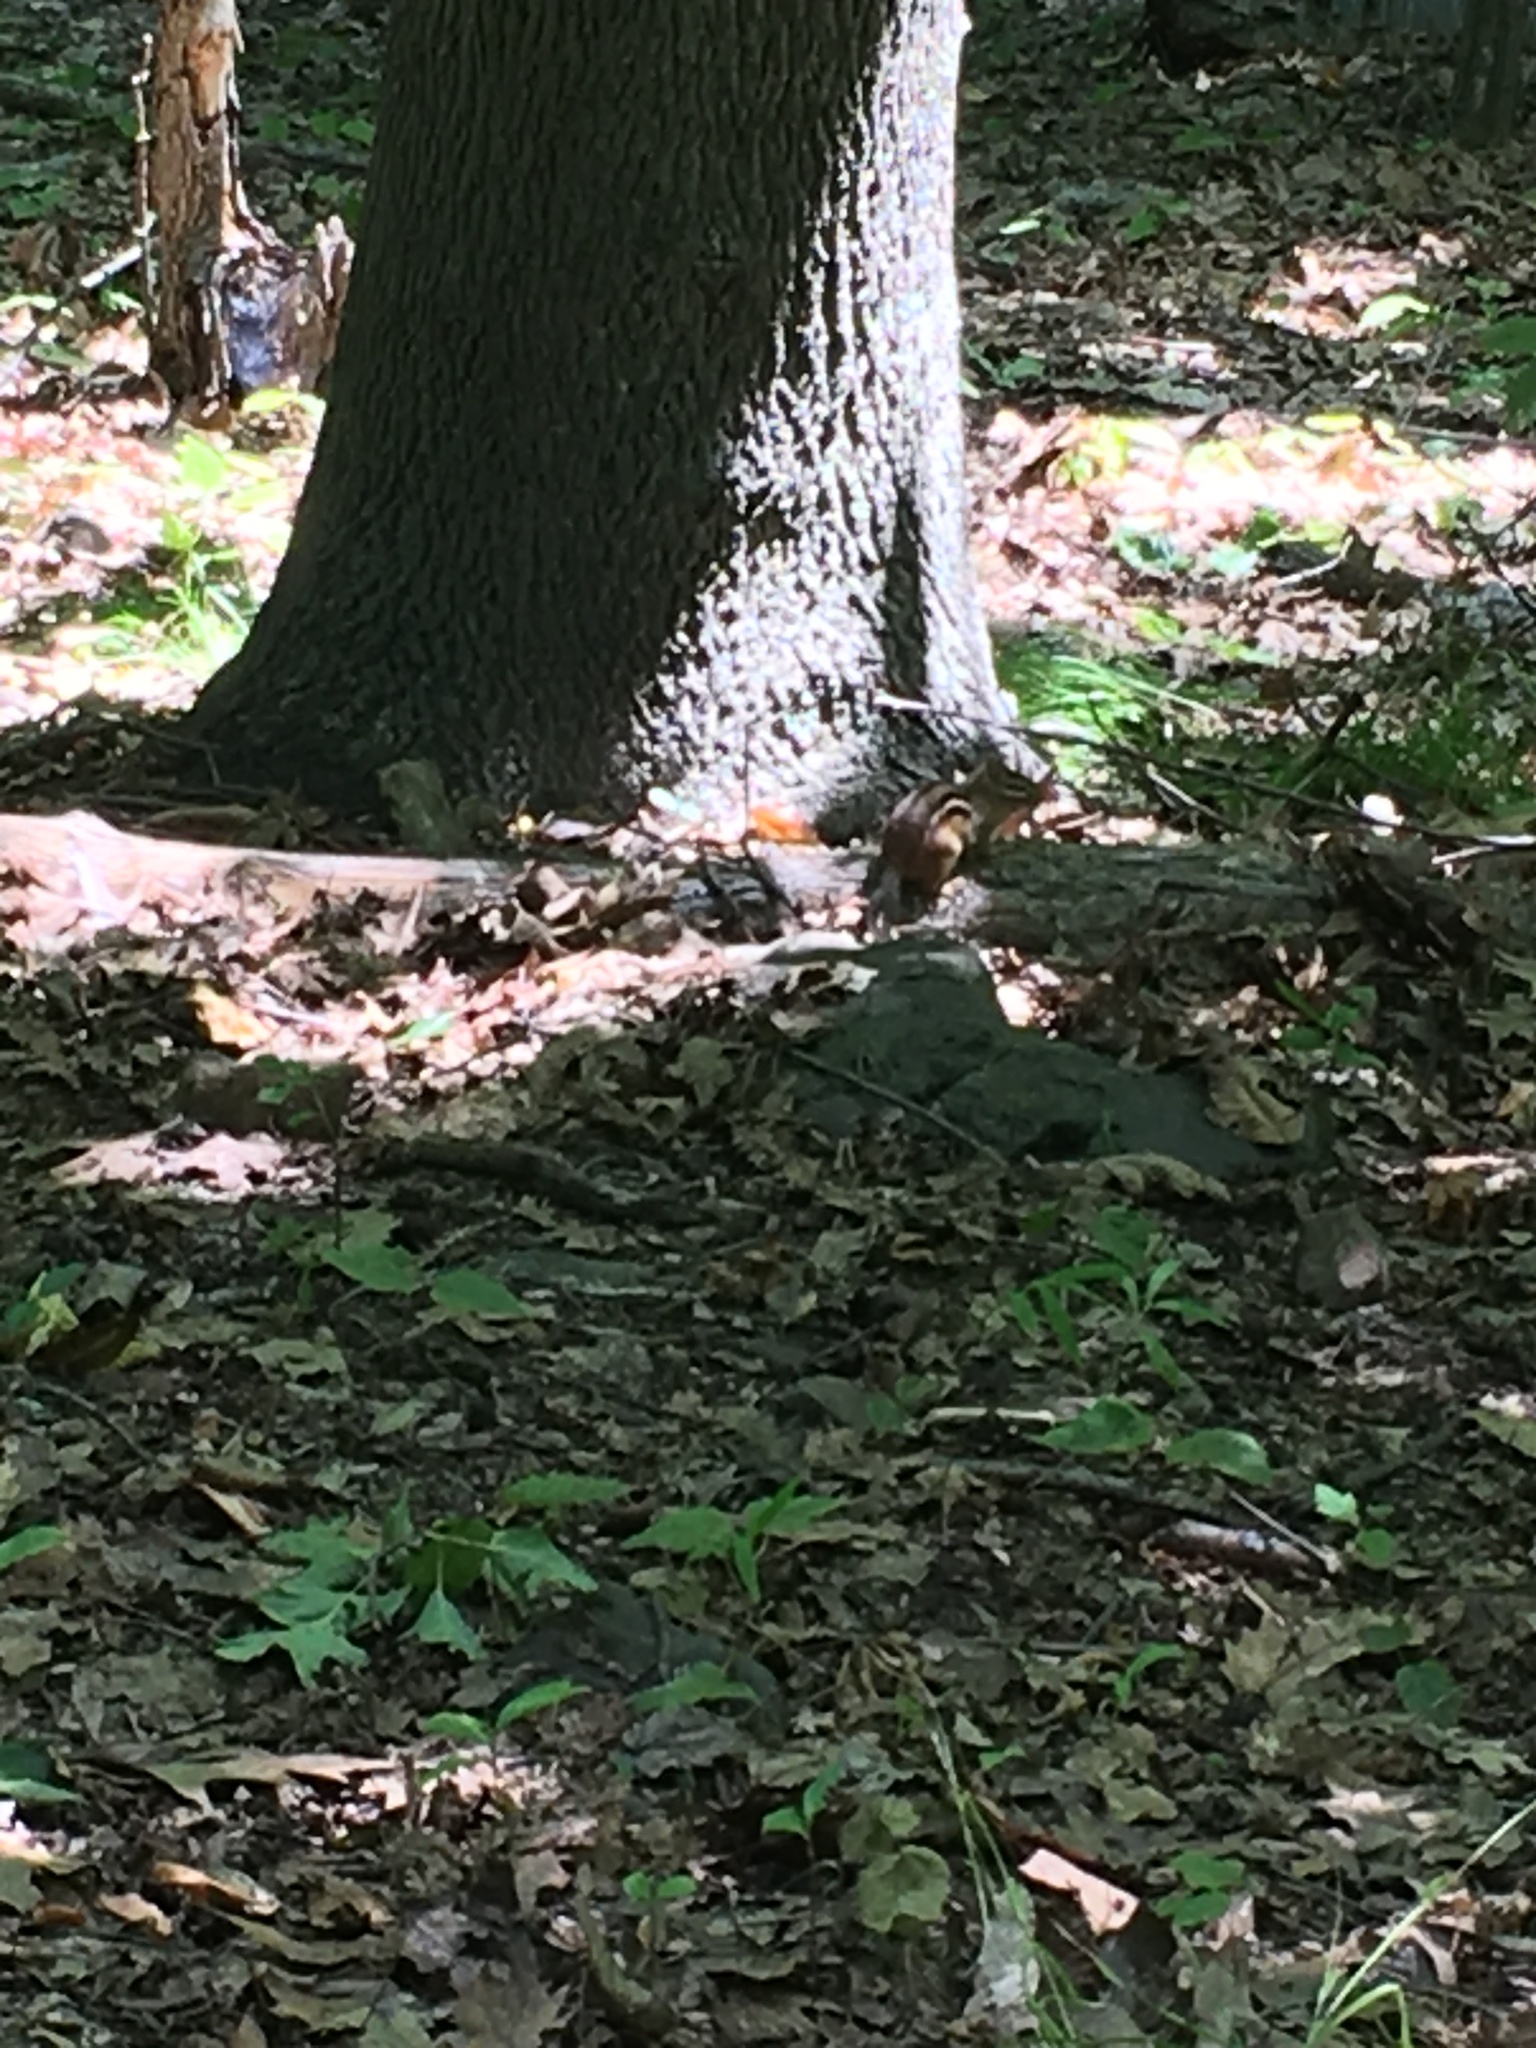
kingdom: Animalia
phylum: Chordata
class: Mammalia
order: Rodentia
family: Sciuridae
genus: Tamias
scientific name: Tamias striatus
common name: Eastern chipmunk
